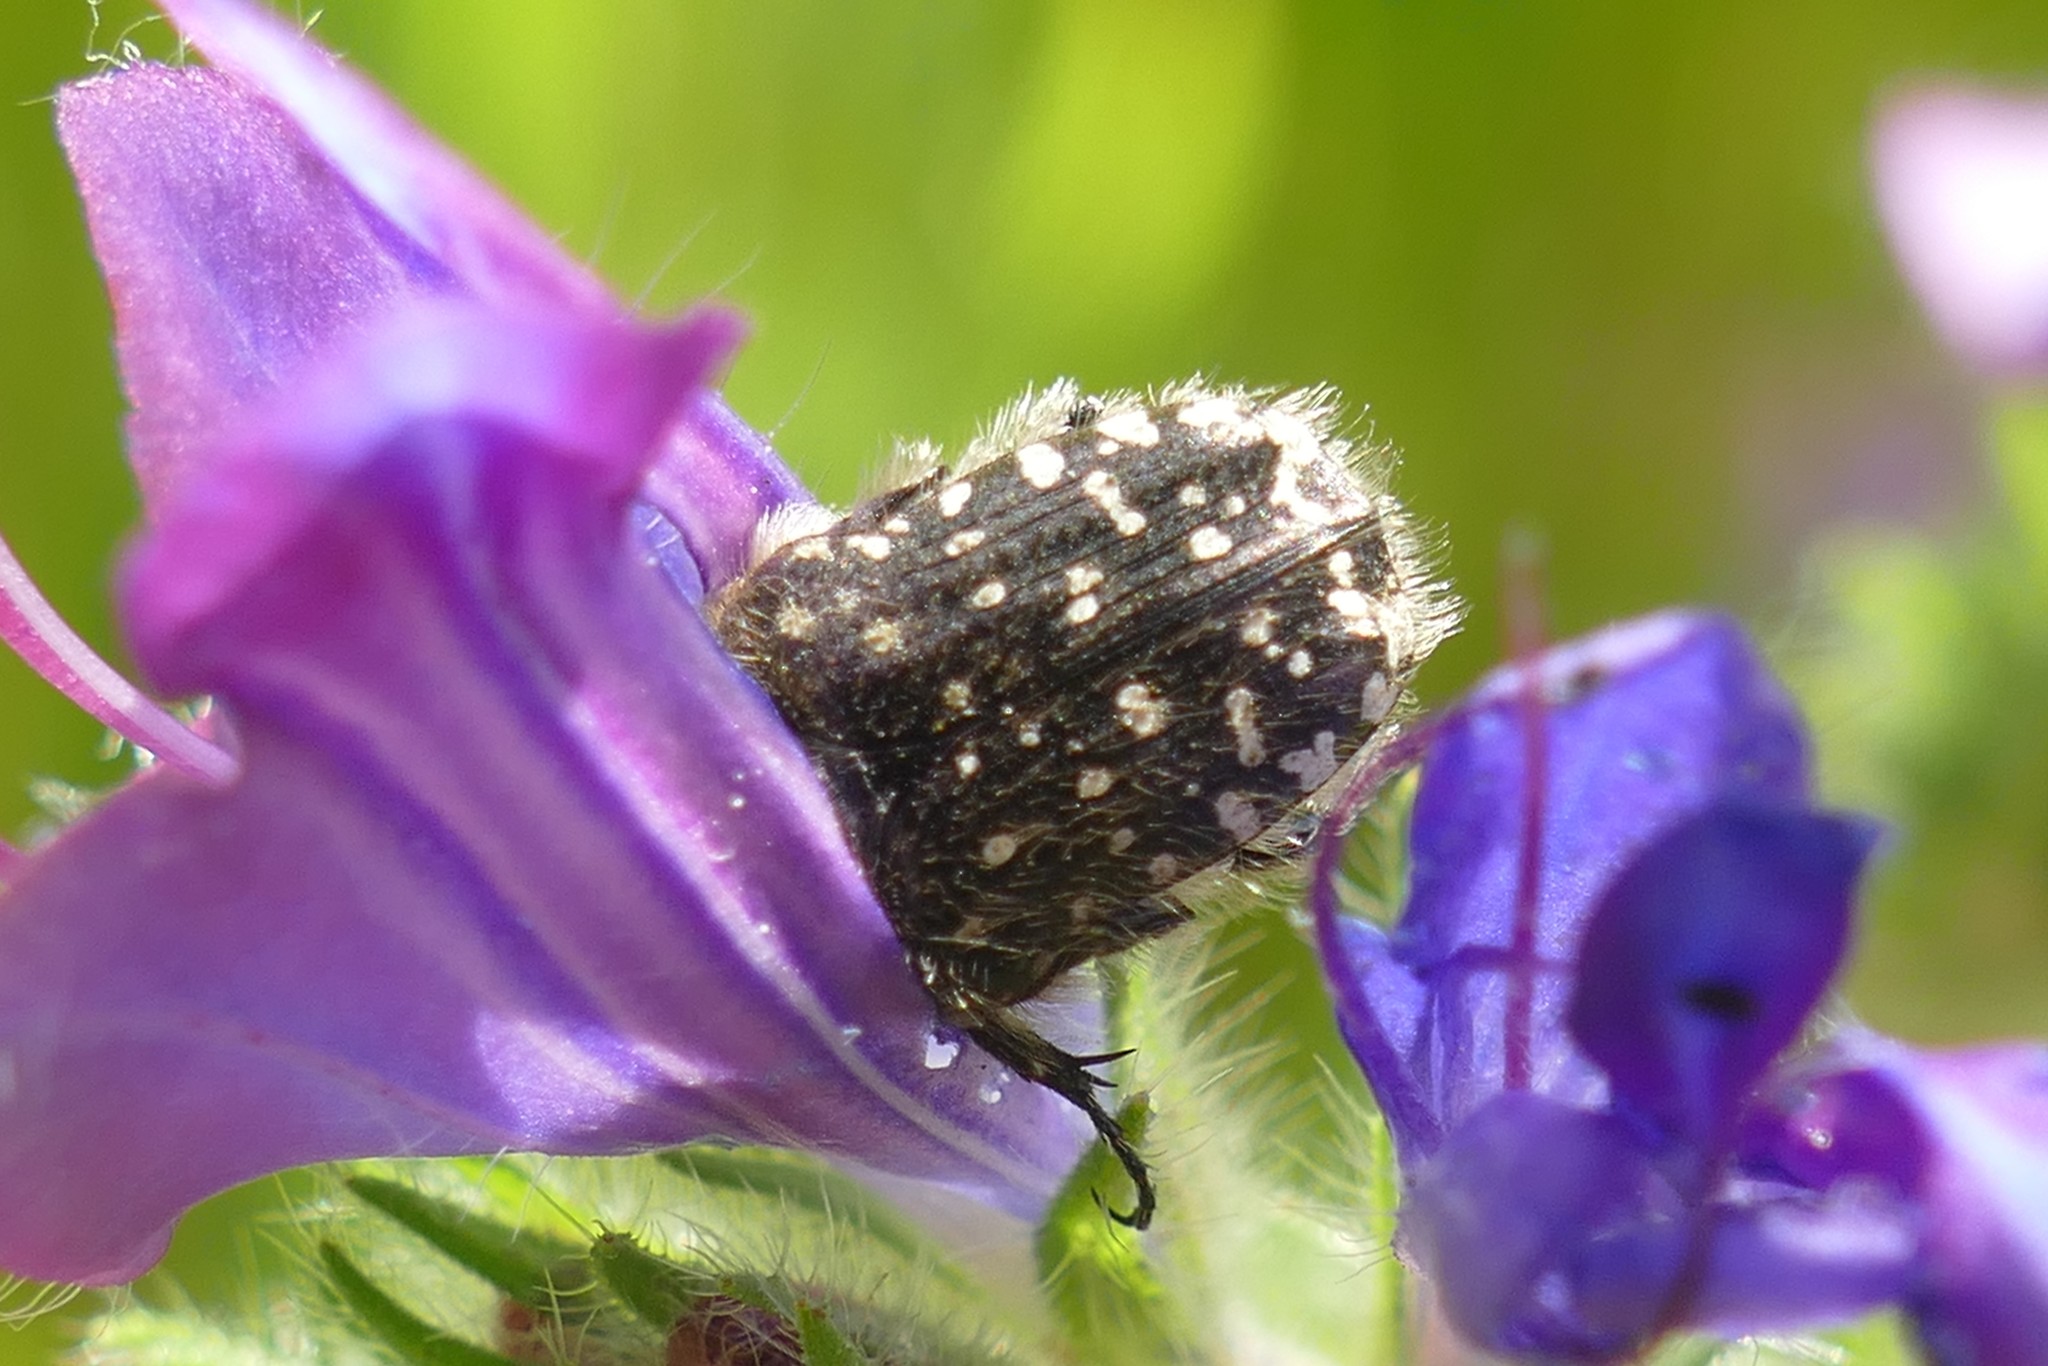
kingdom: Animalia
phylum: Arthropoda
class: Insecta
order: Coleoptera
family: Scarabaeidae
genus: Oxythyrea
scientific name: Oxythyrea funesta
